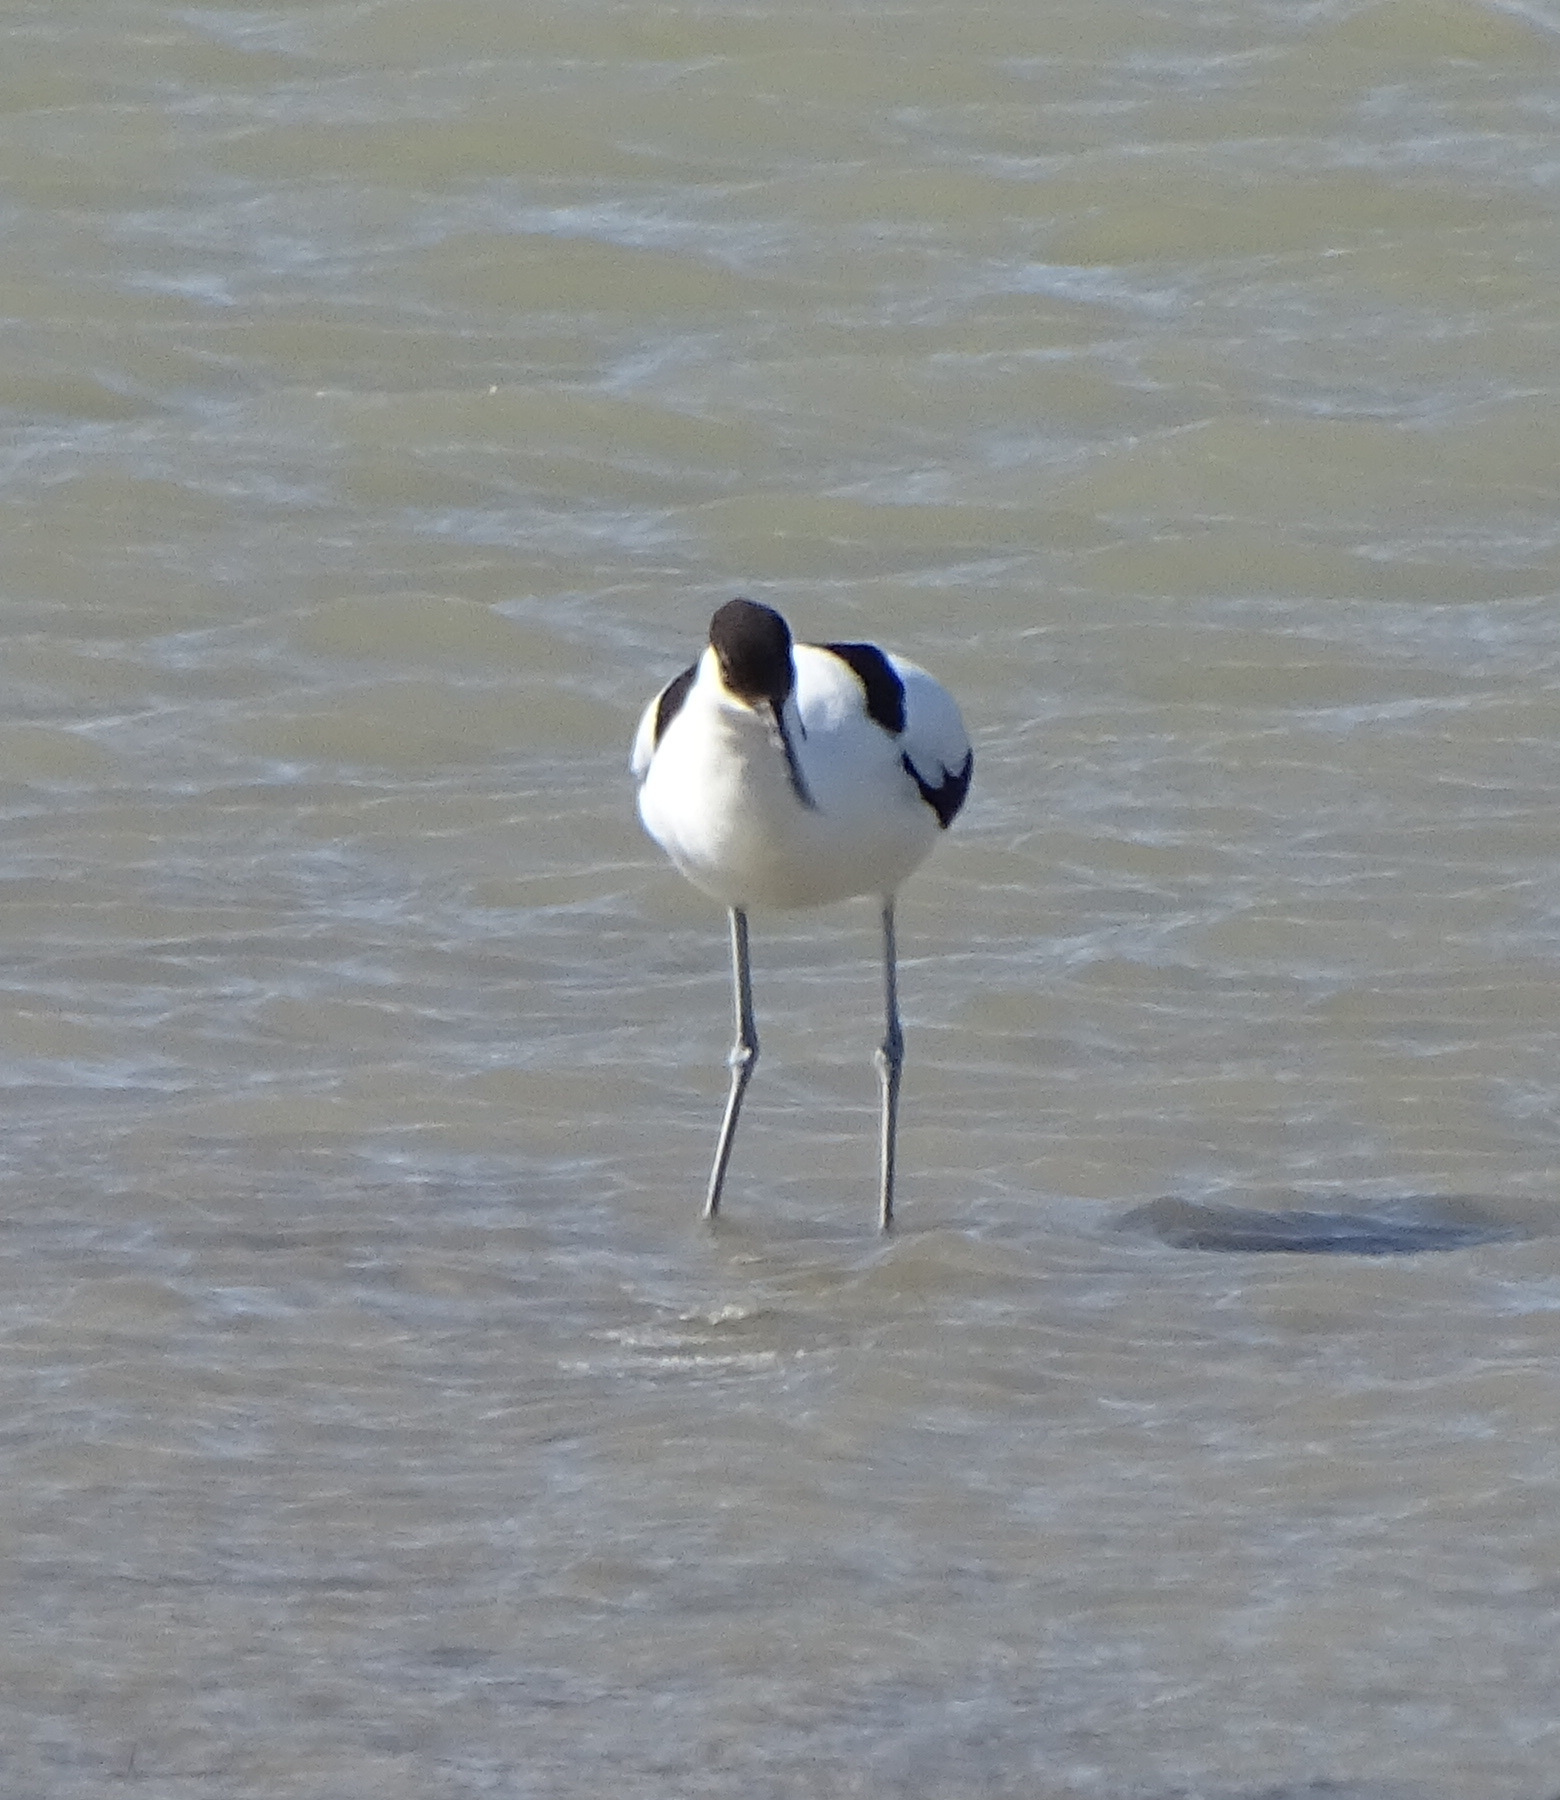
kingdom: Animalia
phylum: Chordata
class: Aves
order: Charadriiformes
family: Recurvirostridae
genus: Recurvirostra
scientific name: Recurvirostra avosetta
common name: Pied avocet
